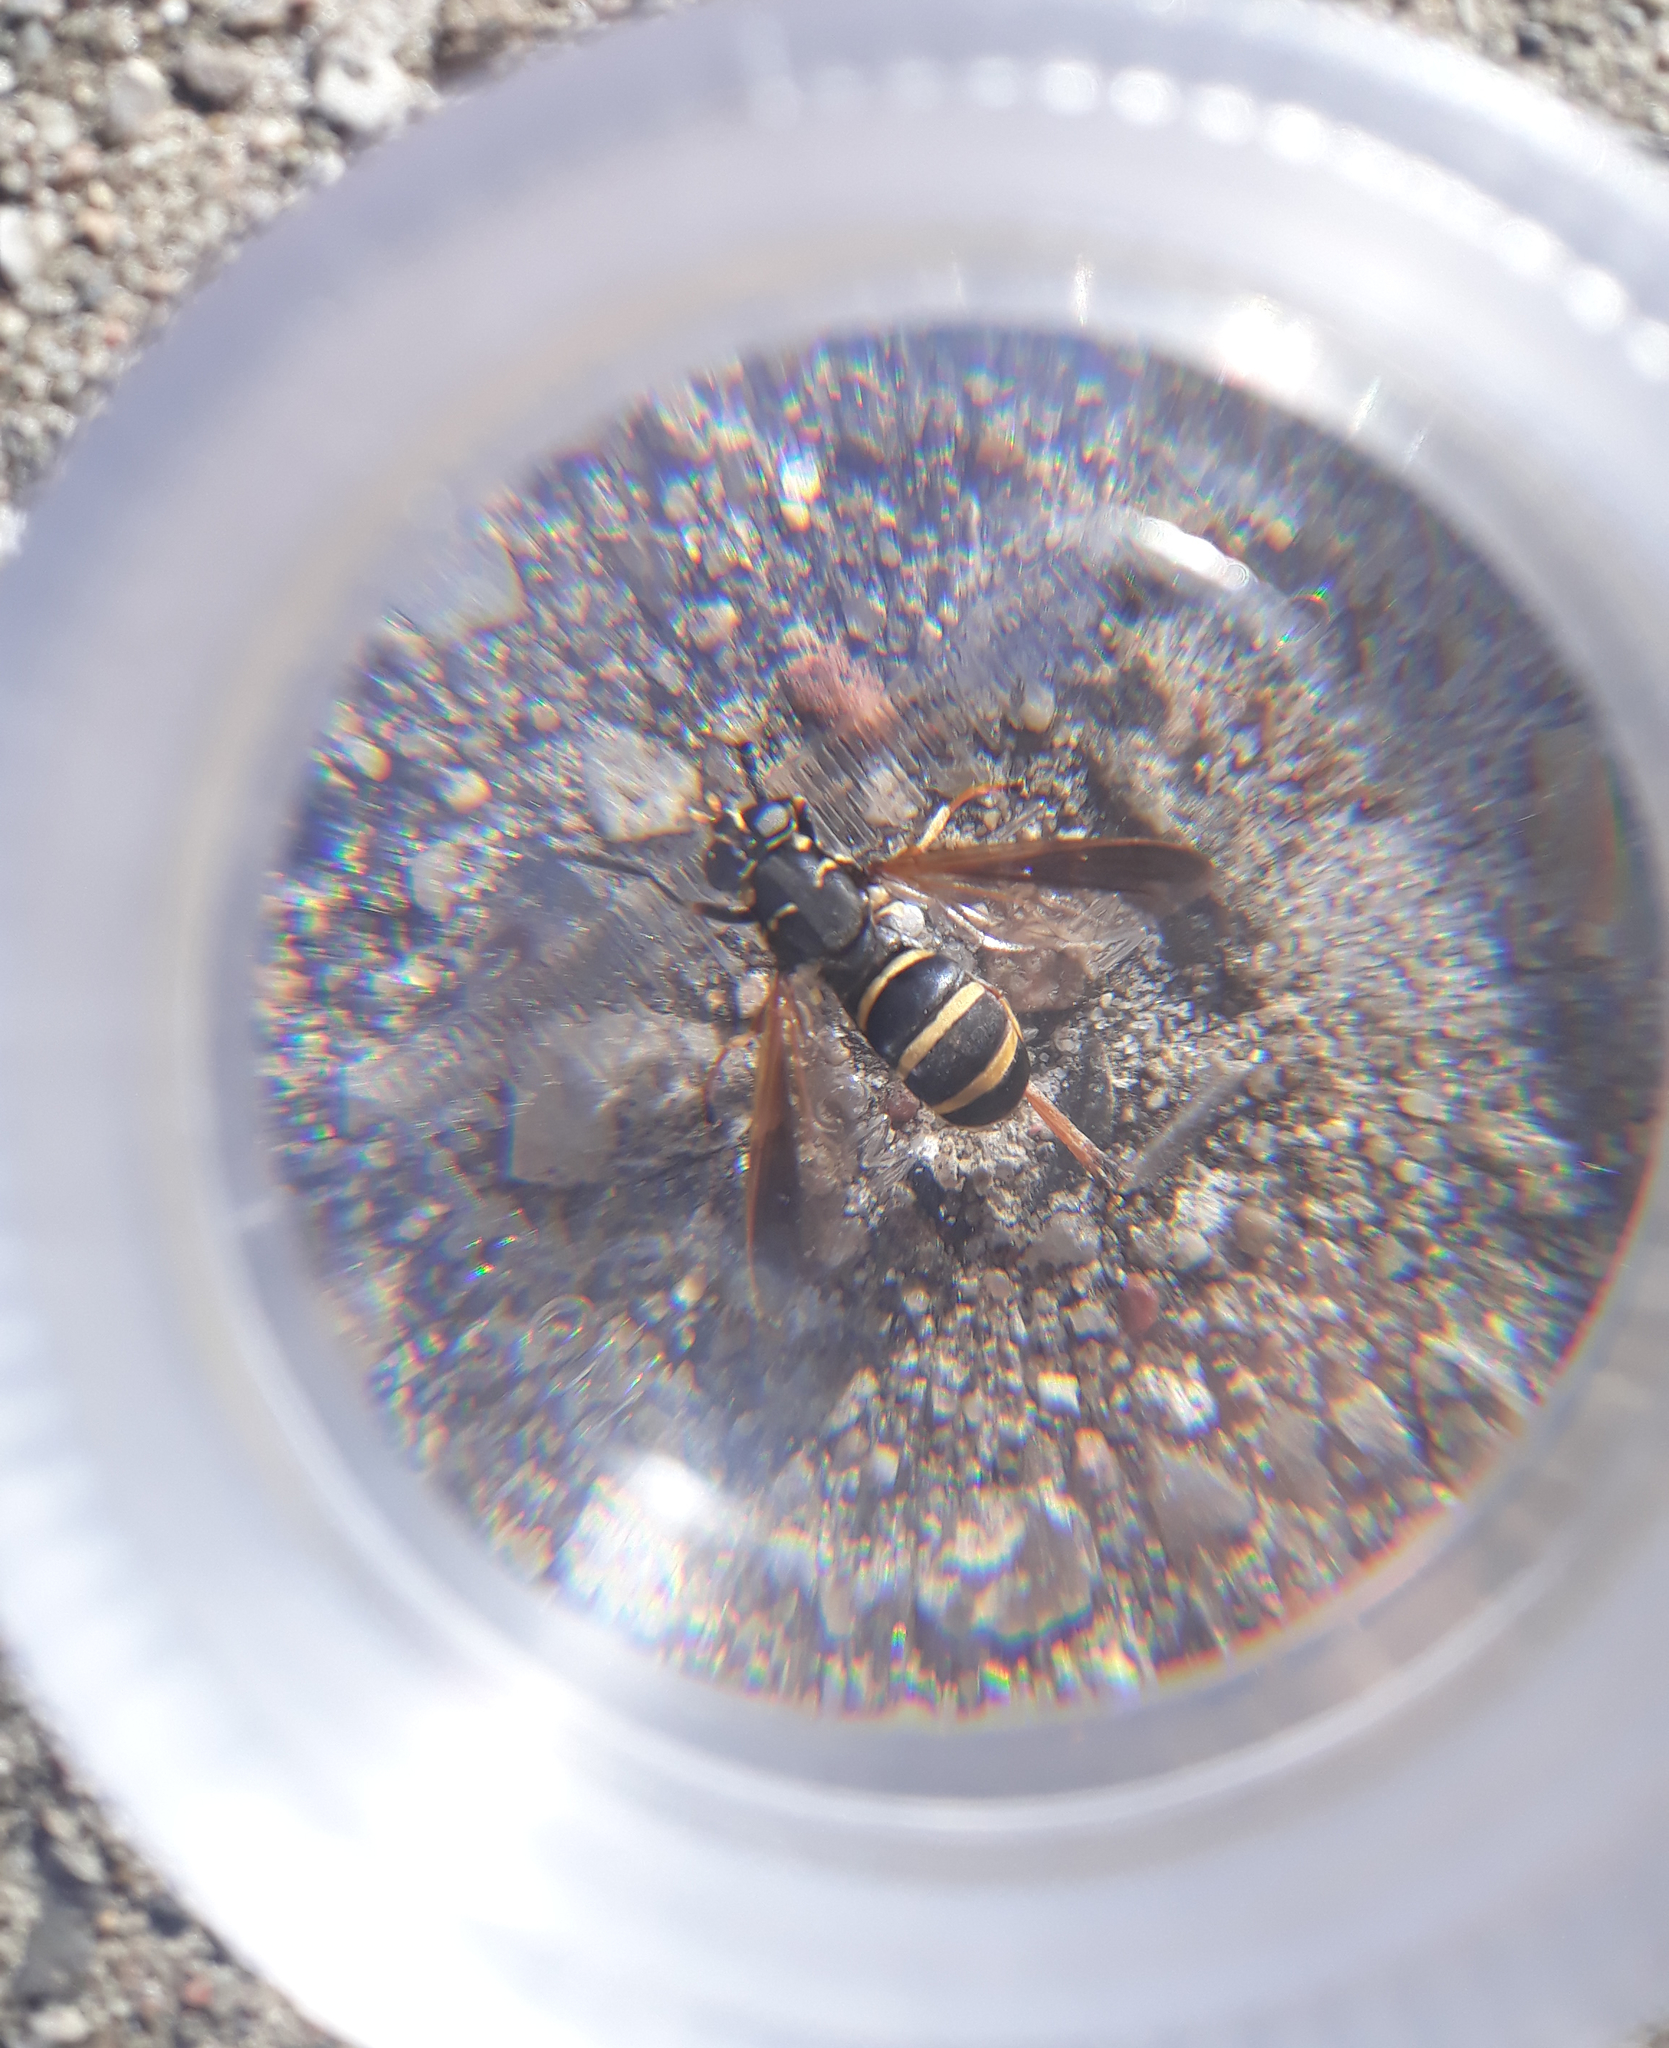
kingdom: Animalia
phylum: Arthropoda
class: Insecta
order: Diptera
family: Syrphidae
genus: Temnostoma
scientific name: Temnostoma bombylans
